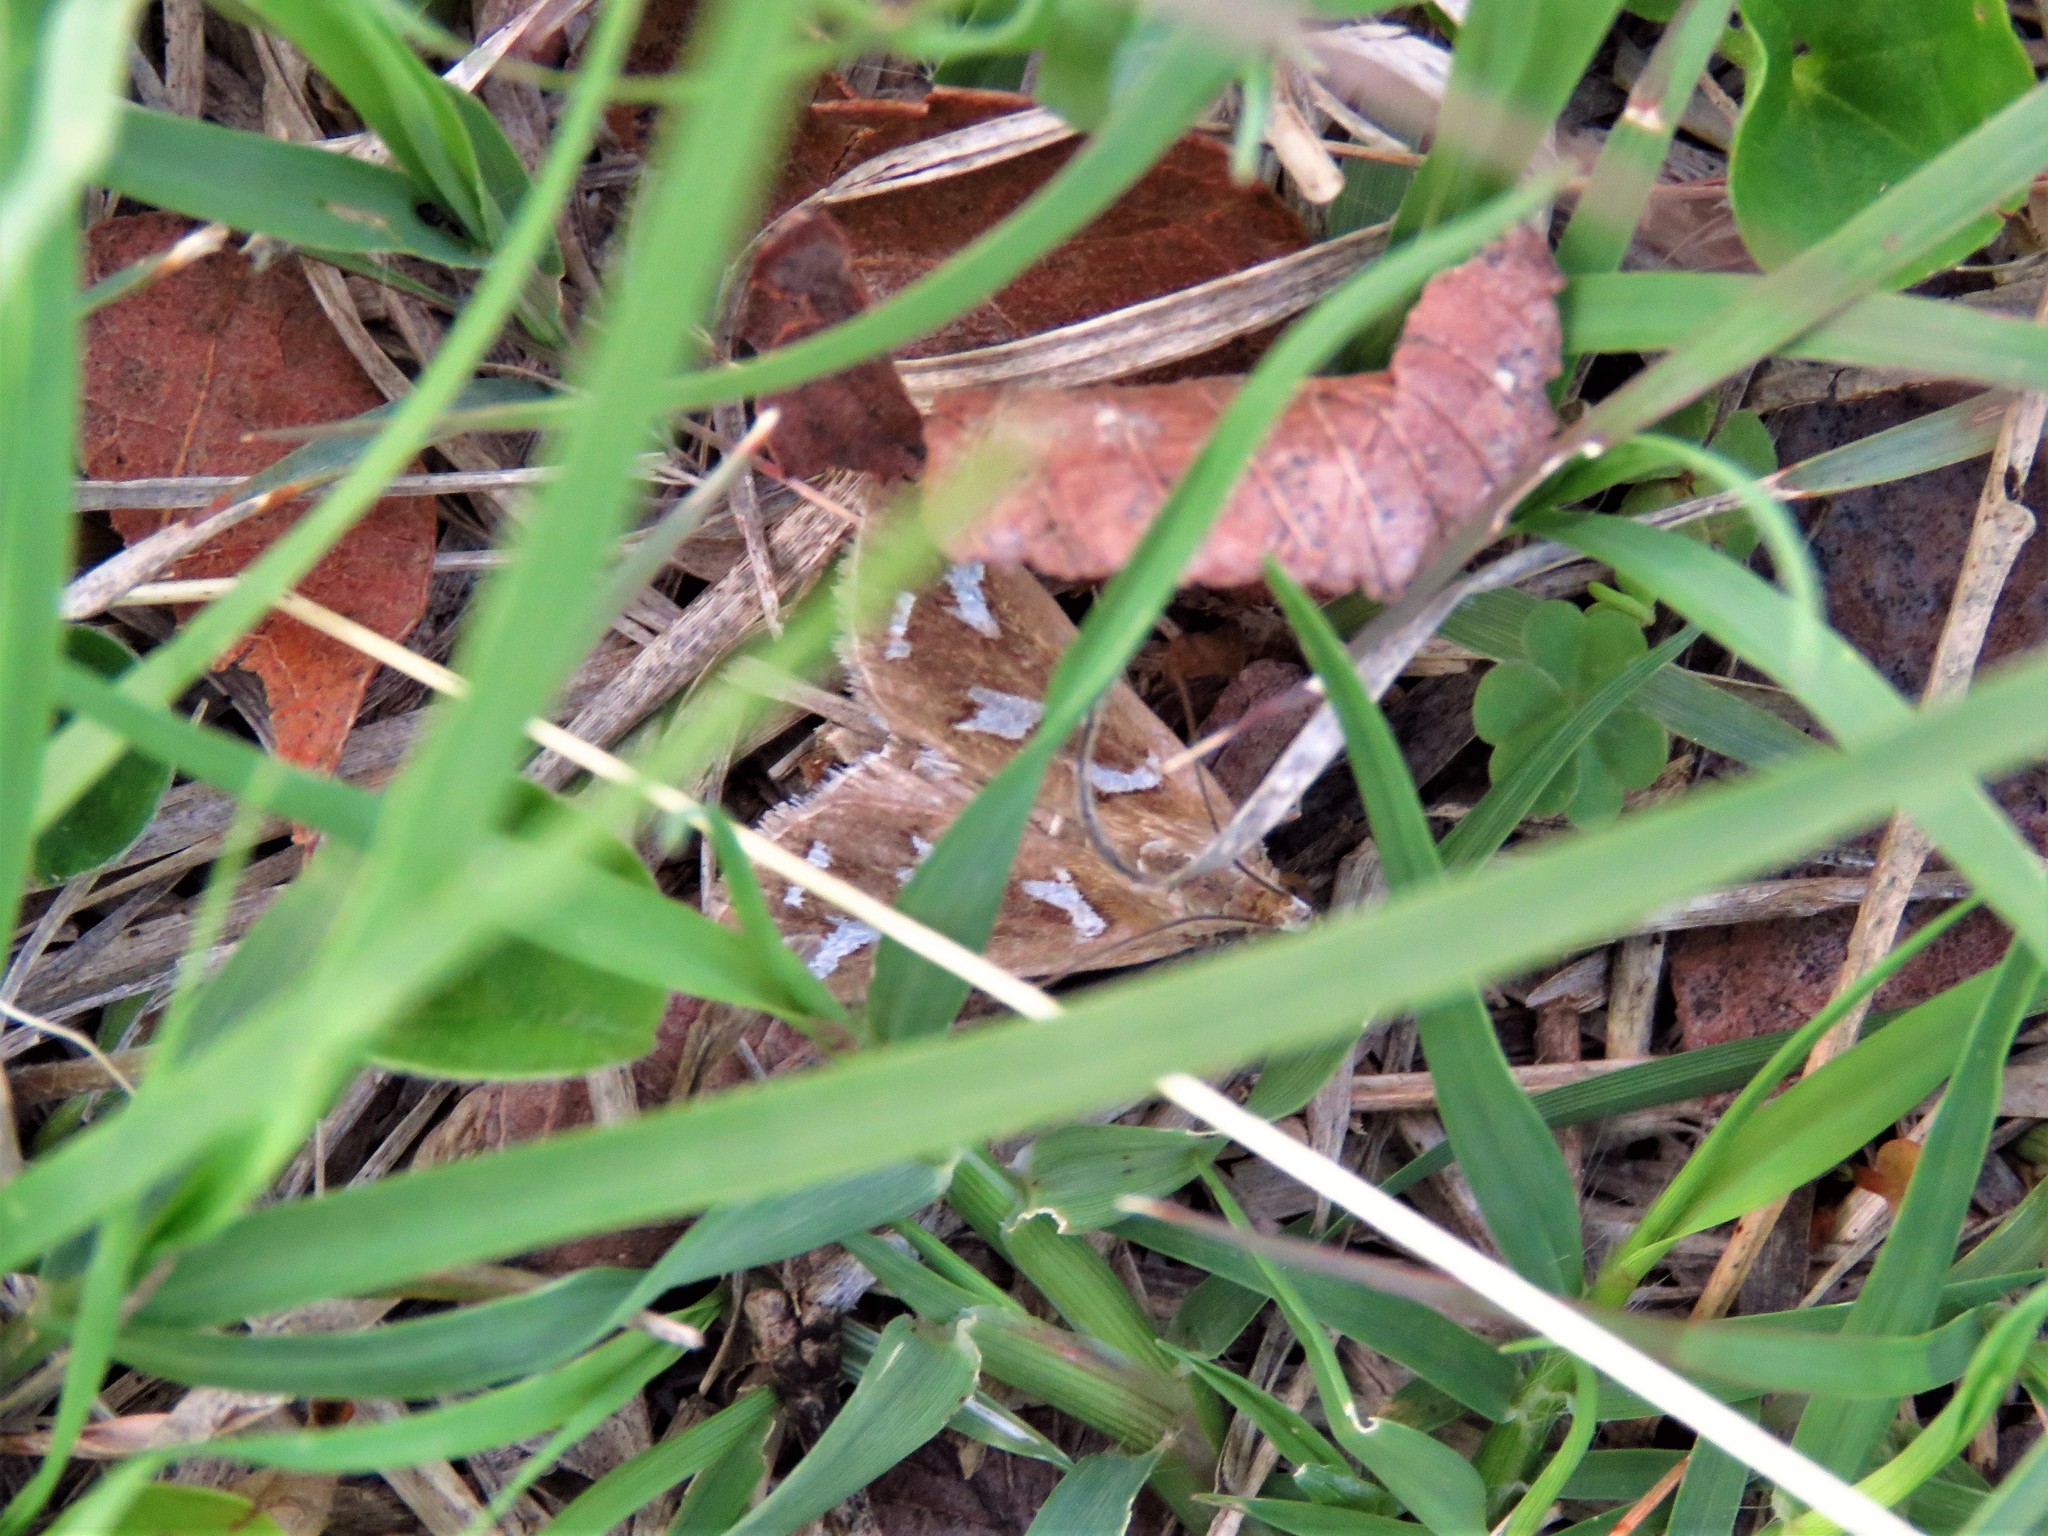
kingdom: Animalia
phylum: Arthropoda
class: Insecta
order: Lepidoptera
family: Crambidae
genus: Diastictis
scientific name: Diastictis fracturalis
